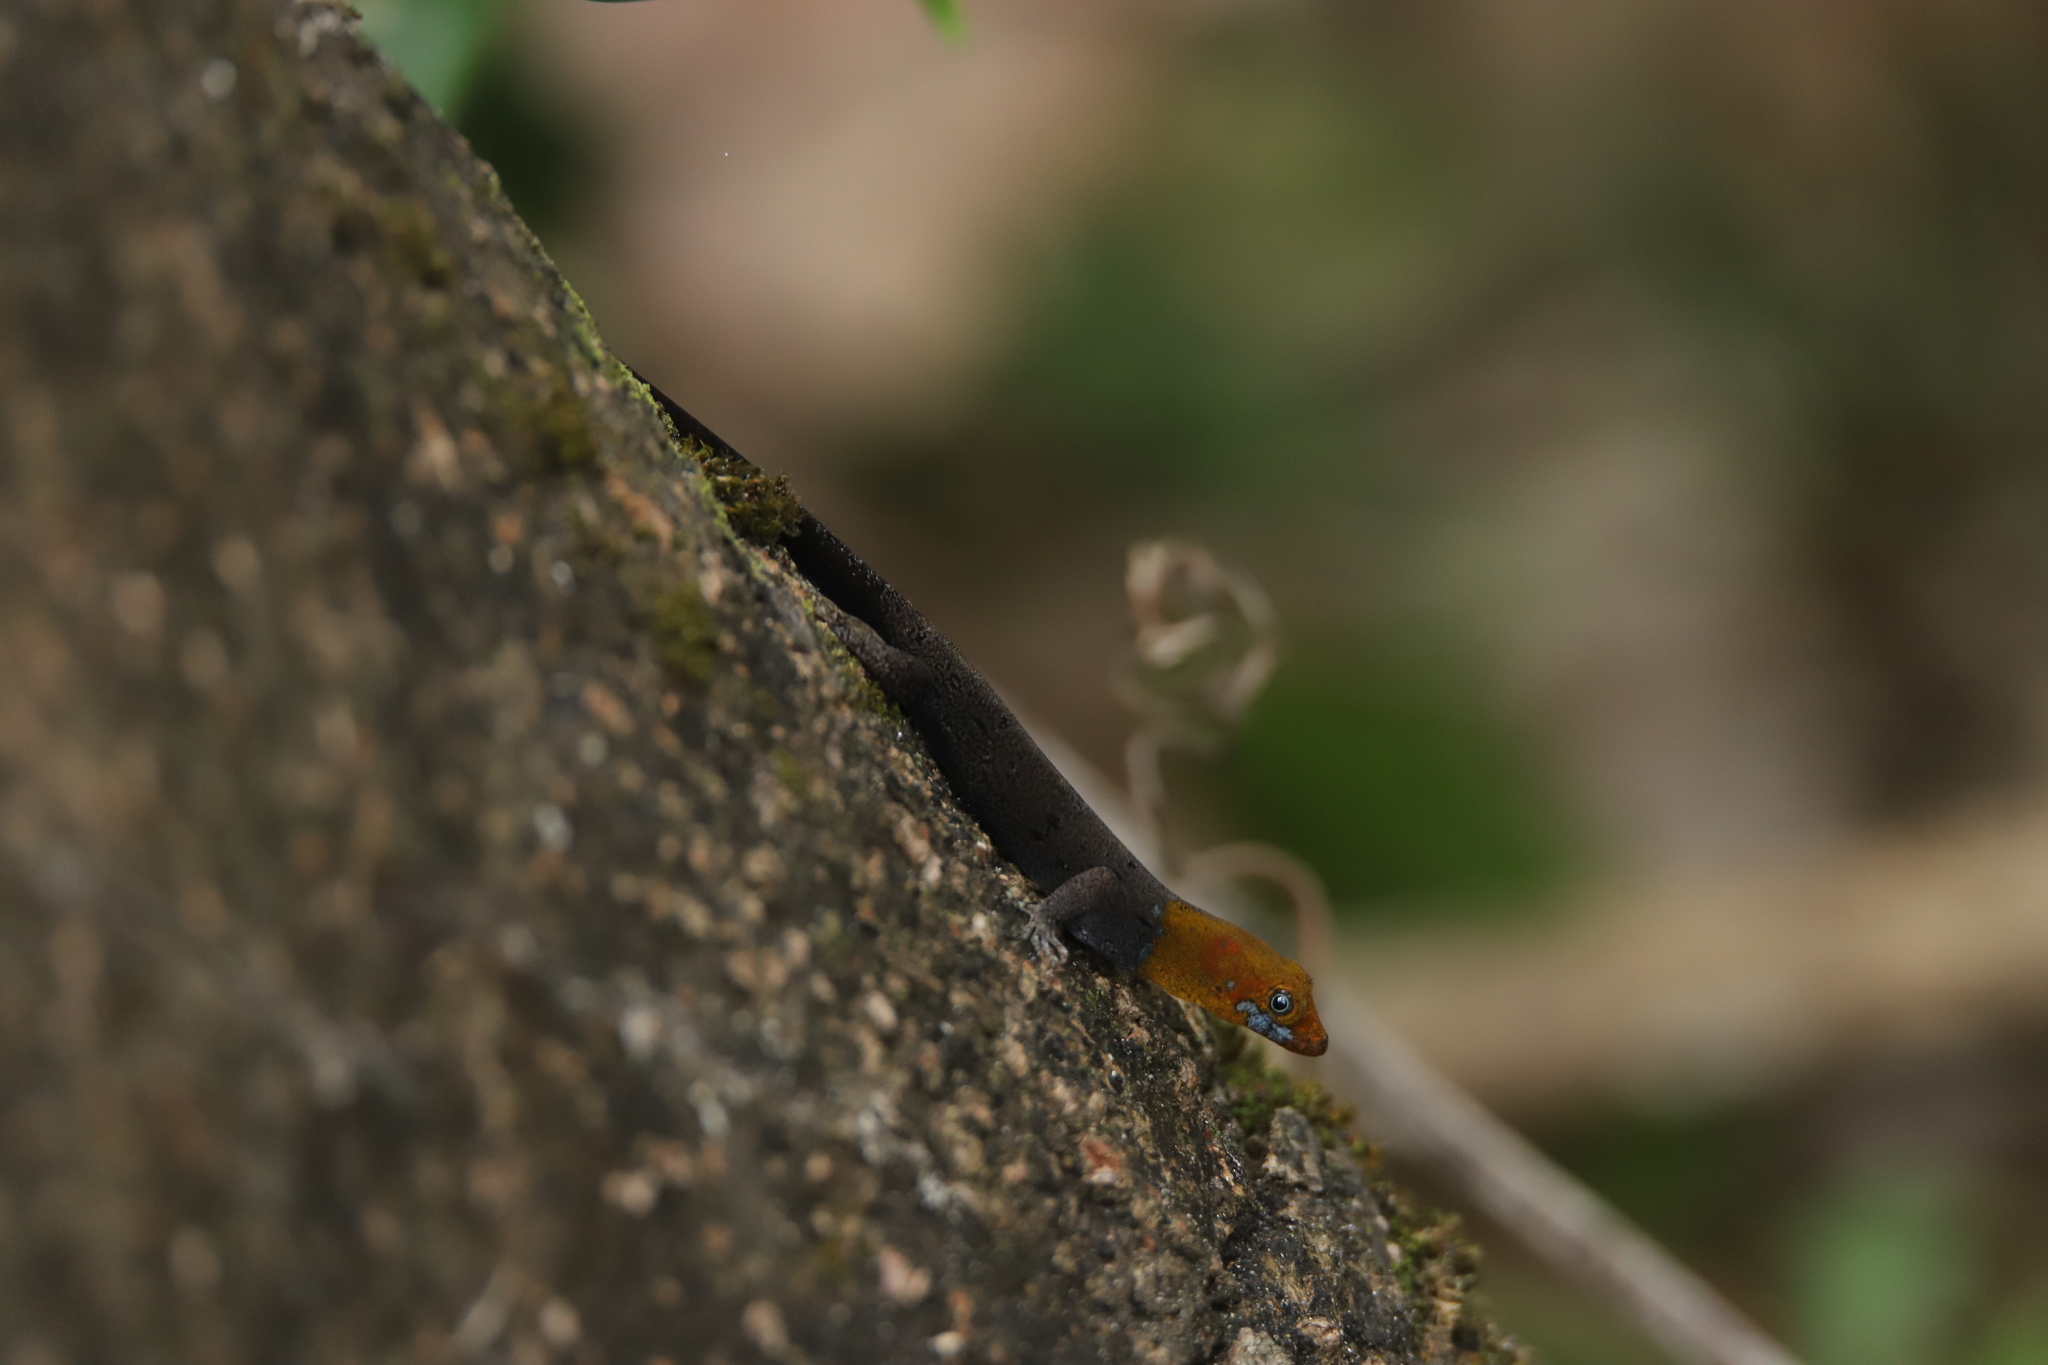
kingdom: Animalia
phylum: Chordata
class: Squamata
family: Sphaerodactylidae
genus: Gonatodes
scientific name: Gonatodes albogularis
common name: Yellow-headed gecko
